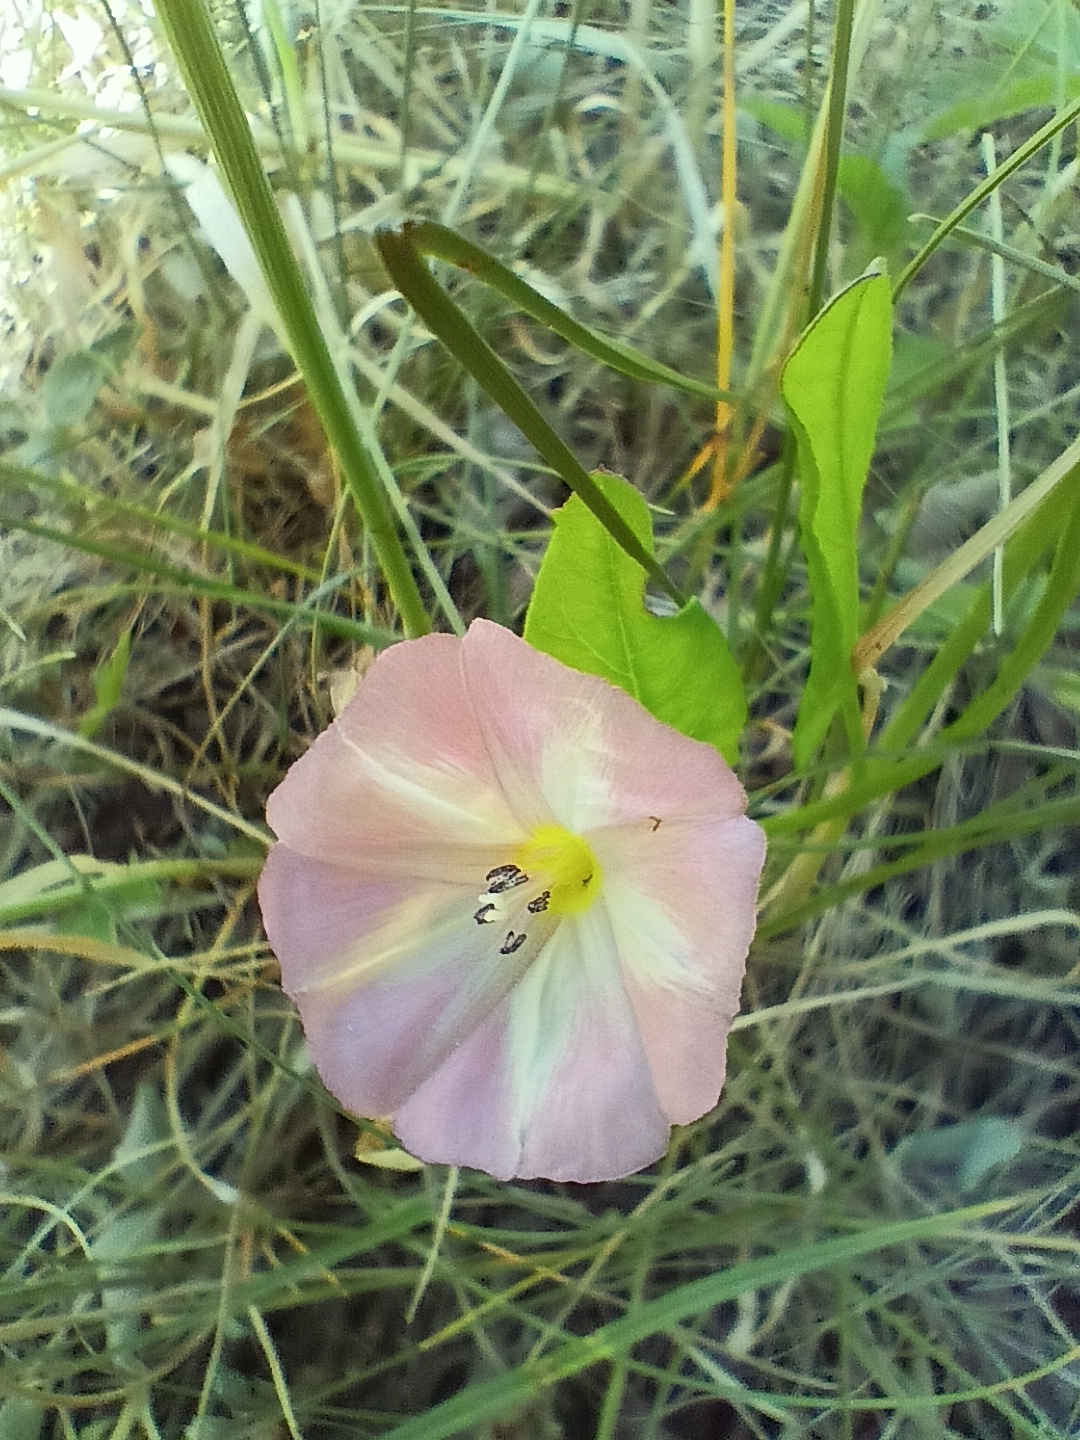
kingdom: Plantae
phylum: Tracheophyta
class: Magnoliopsida
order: Solanales
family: Convolvulaceae
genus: Convolvulus
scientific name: Convolvulus arvensis
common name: Field bindweed
